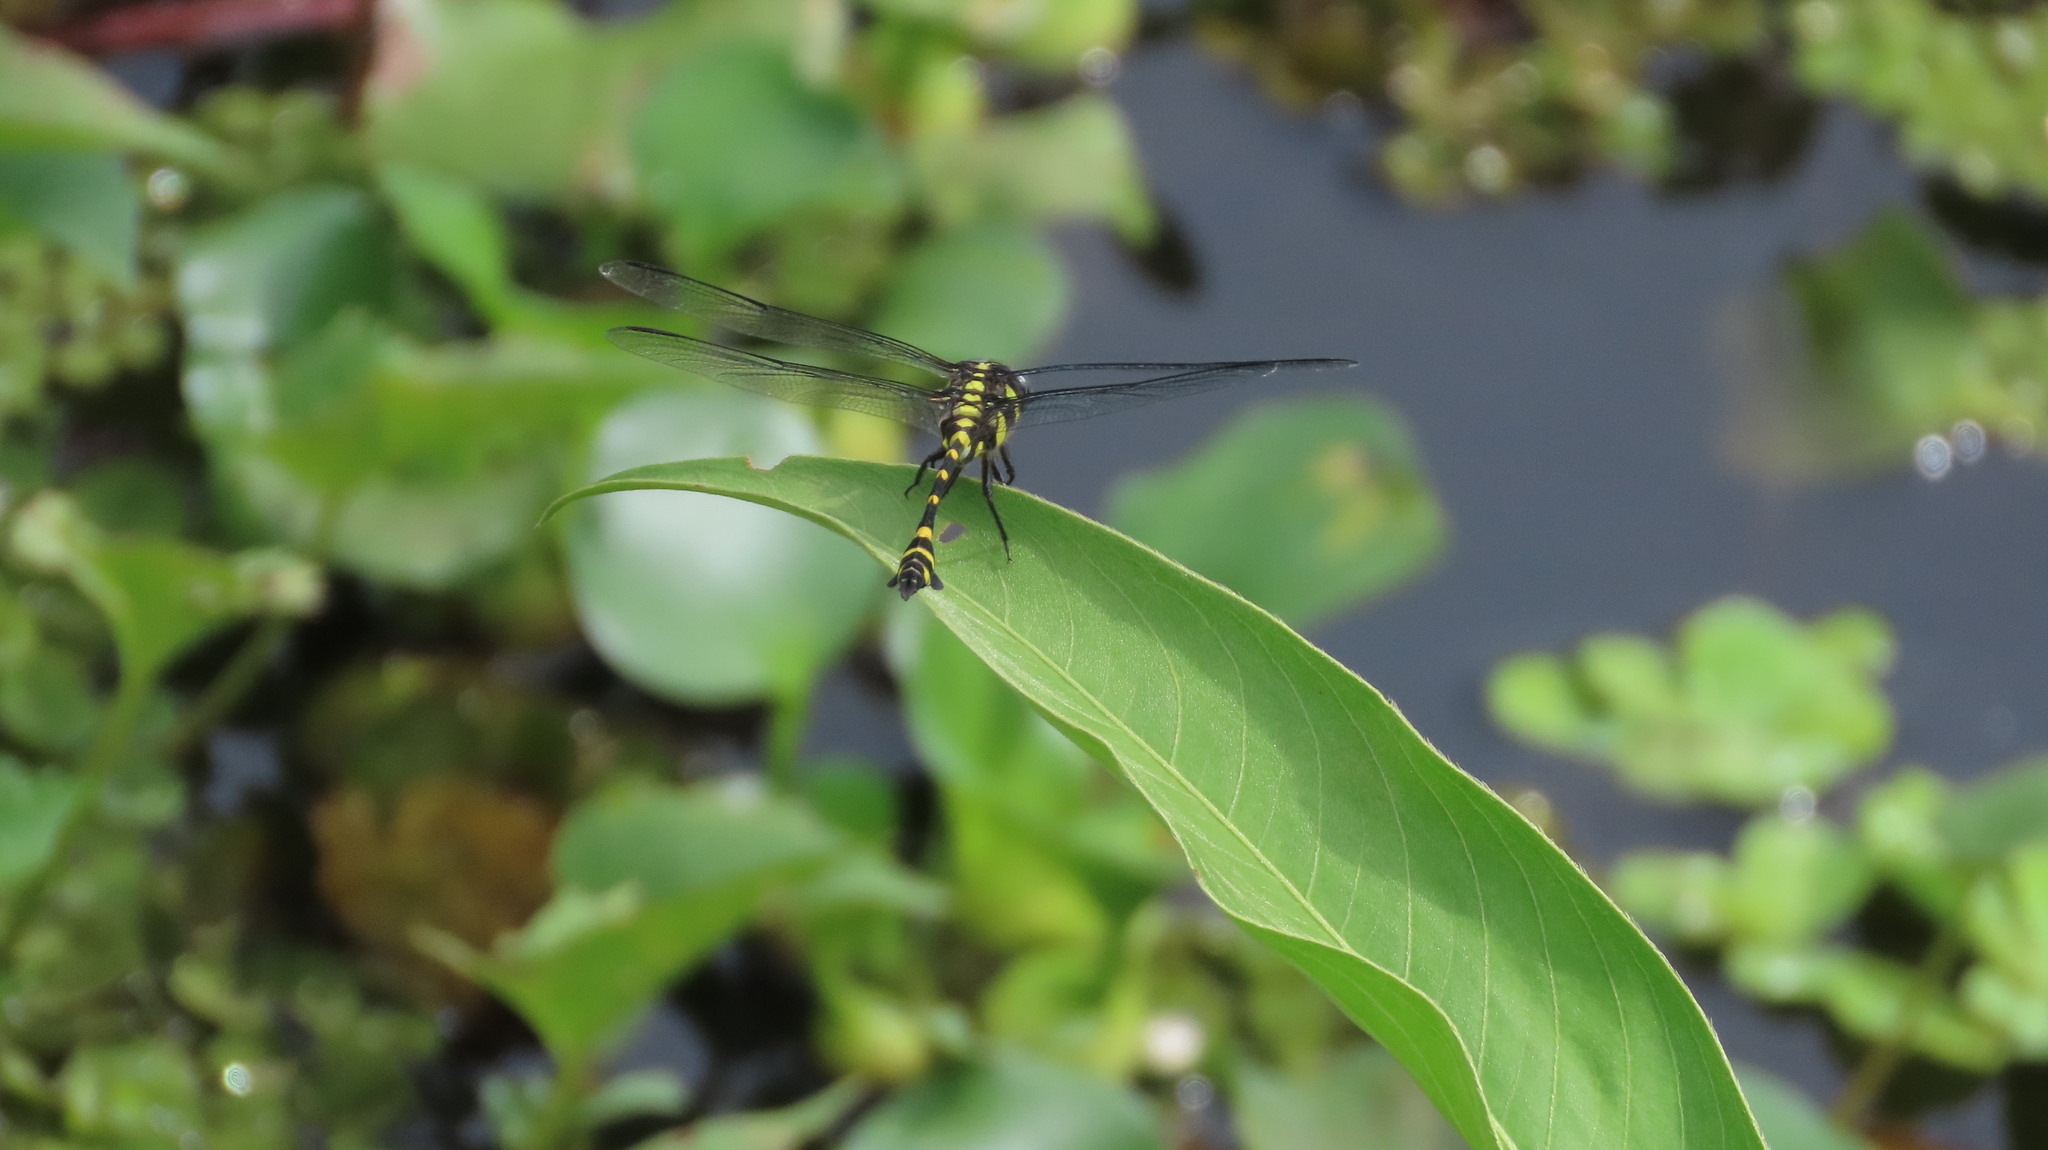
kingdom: Animalia
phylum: Arthropoda
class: Insecta
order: Odonata
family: Gomphidae
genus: Ictinogomphus
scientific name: Ictinogomphus rapax
